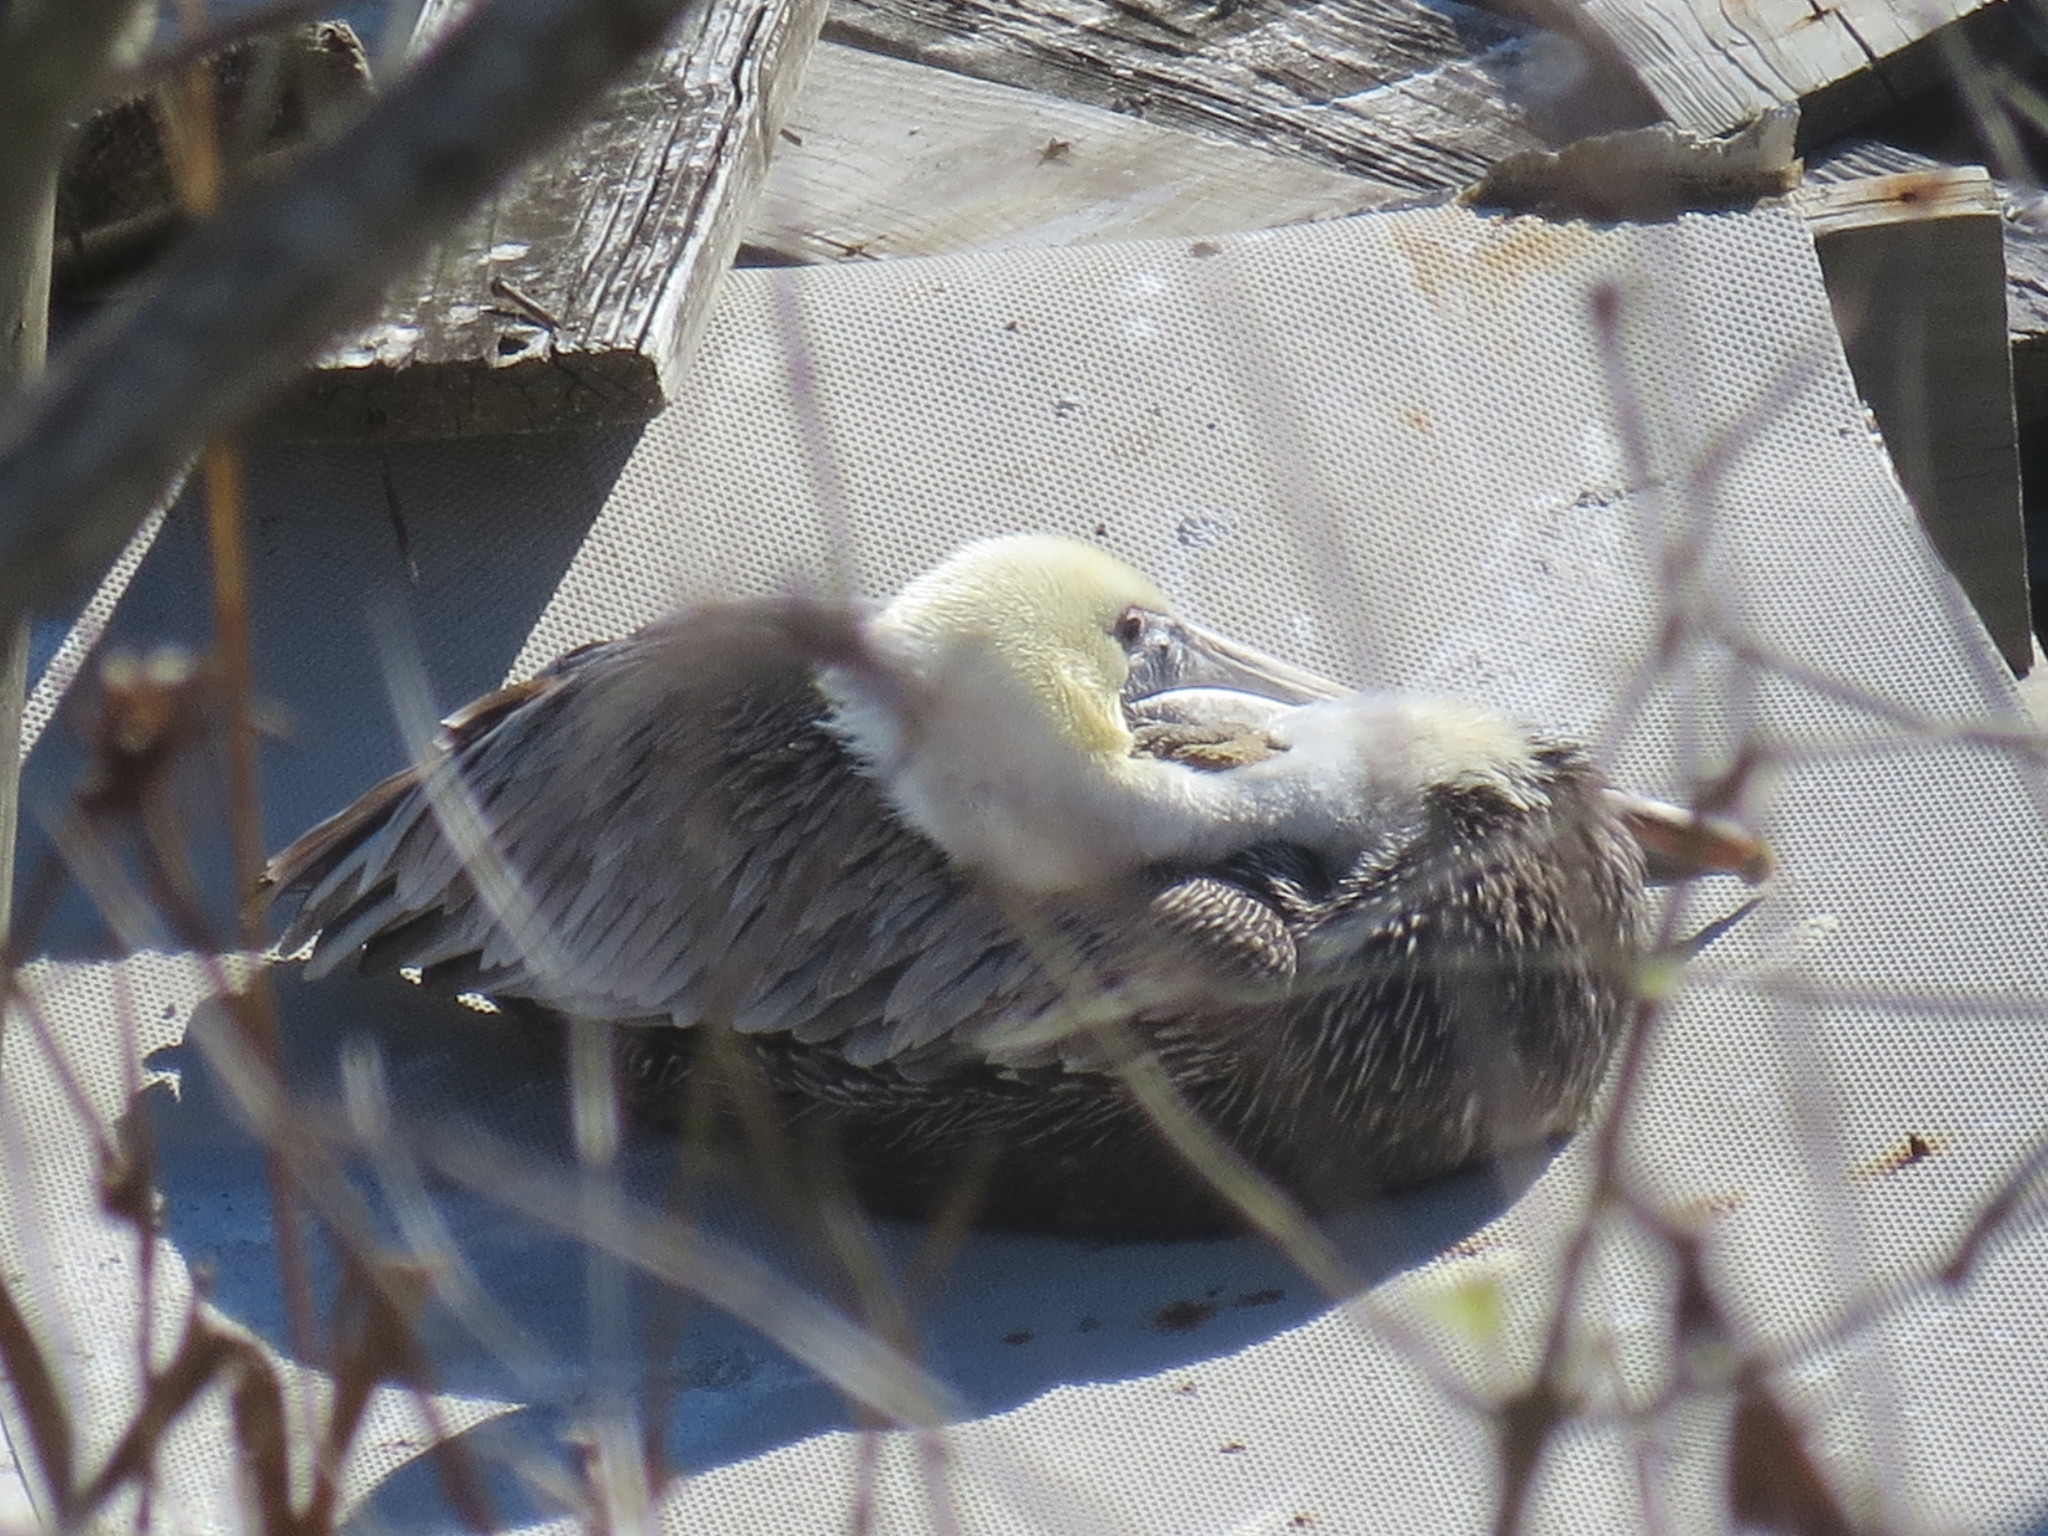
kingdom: Animalia
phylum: Chordata
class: Aves
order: Pelecaniformes
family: Pelecanidae
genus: Pelecanus
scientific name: Pelecanus occidentalis
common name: Brown pelican
